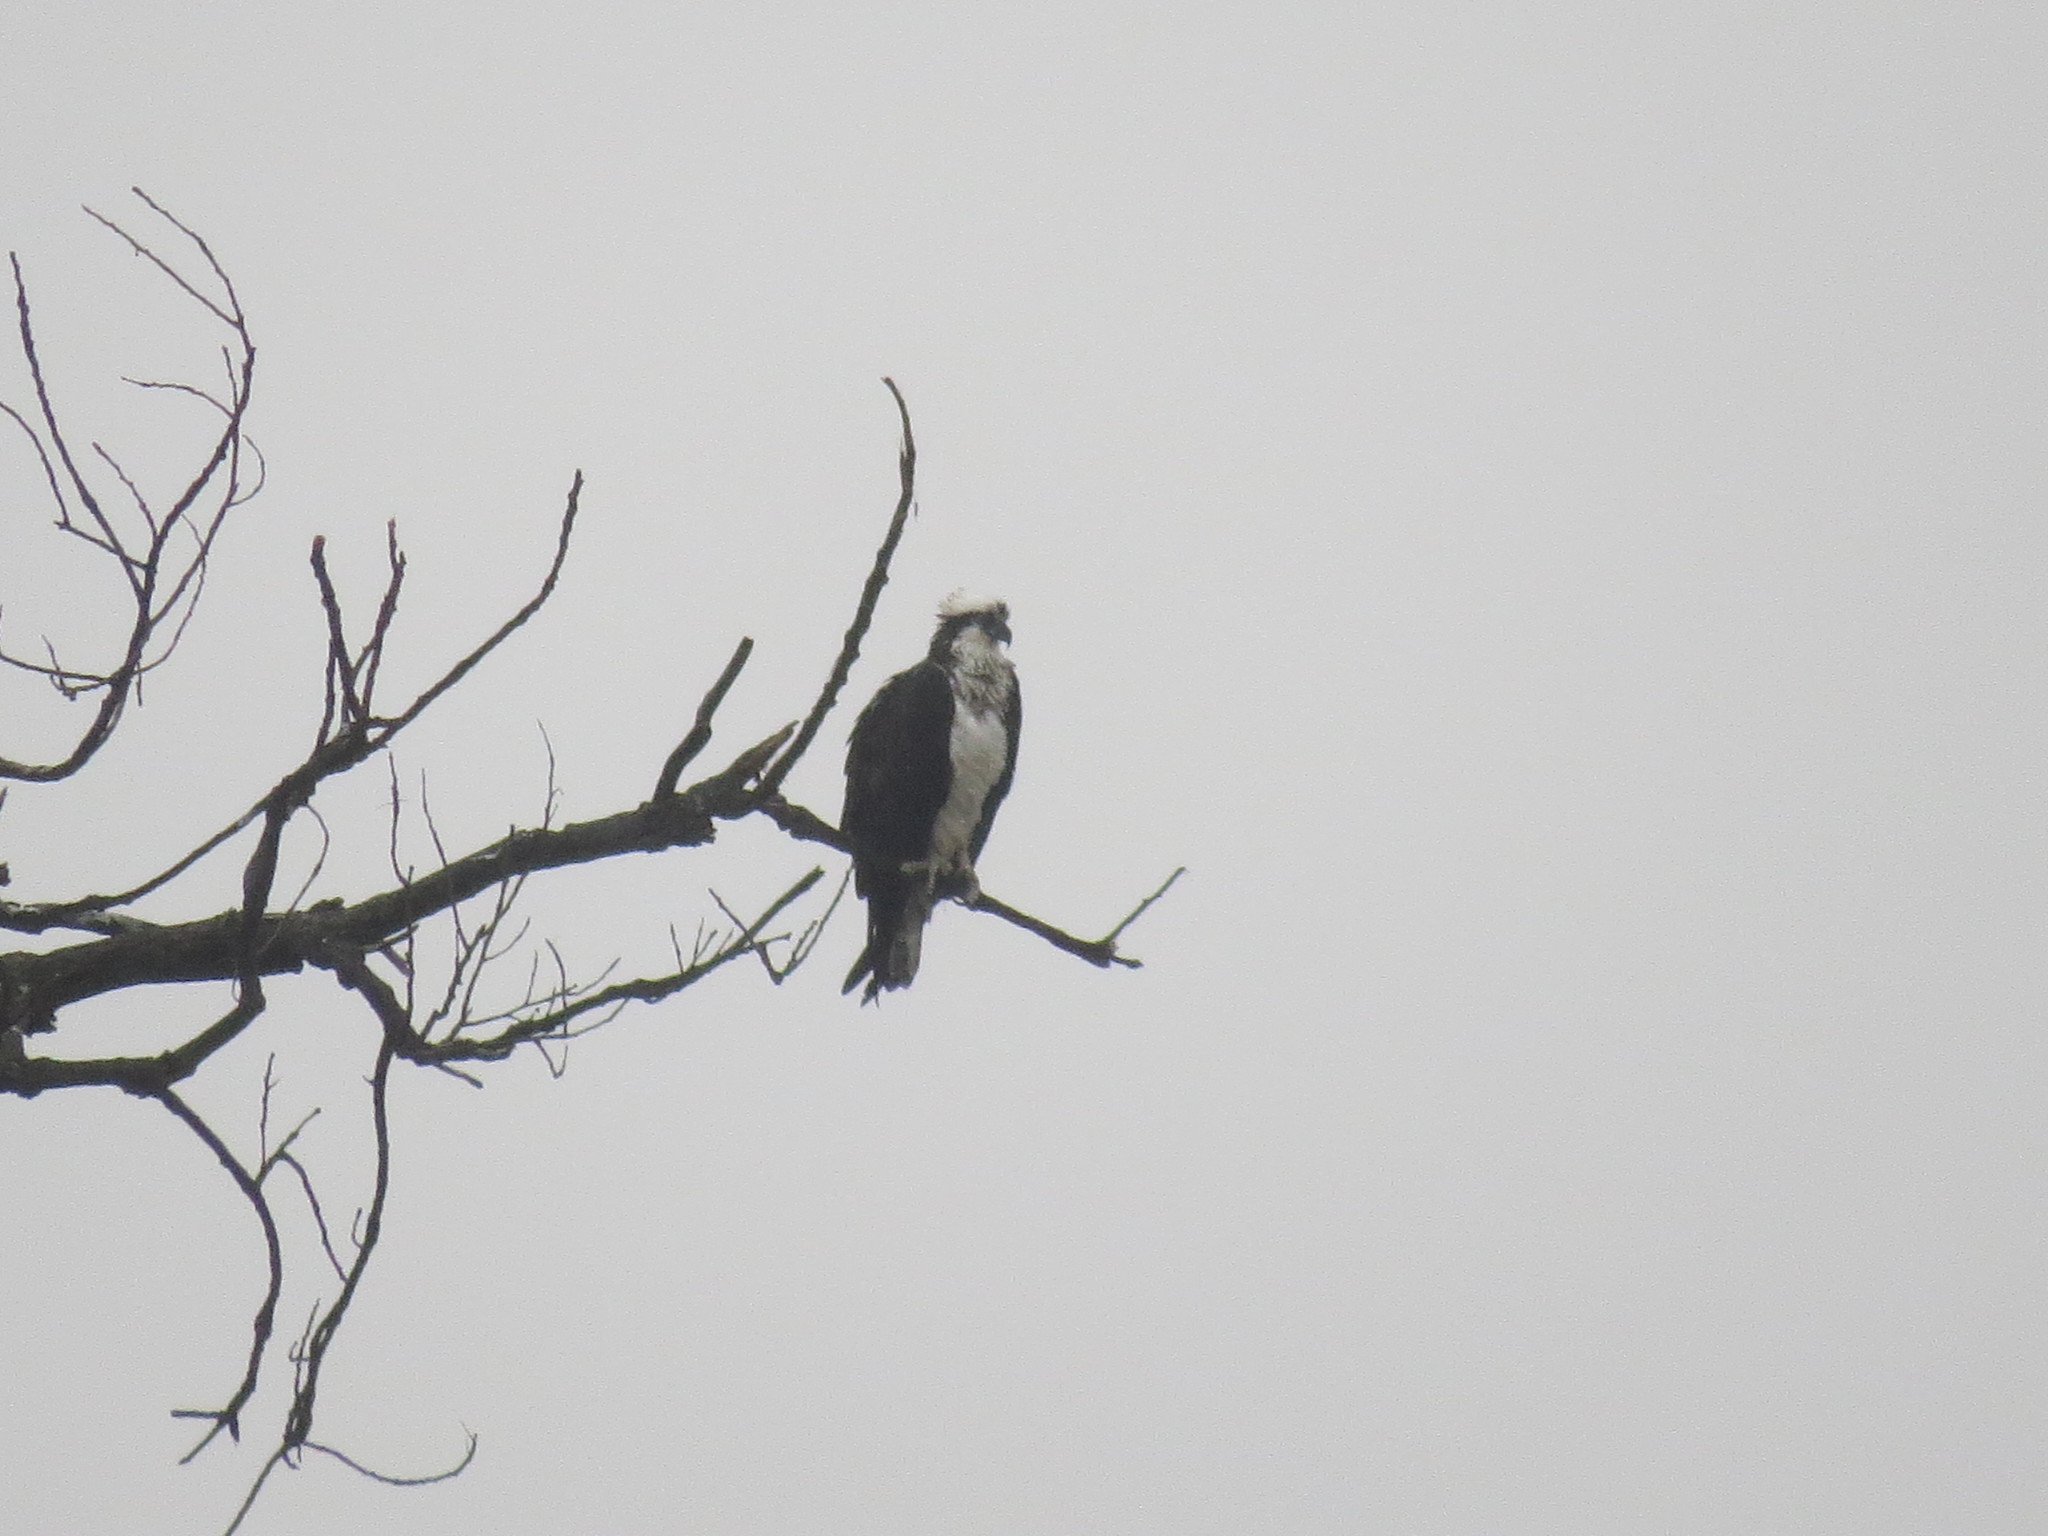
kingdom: Animalia
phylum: Chordata
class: Aves
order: Accipitriformes
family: Pandionidae
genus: Pandion
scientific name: Pandion haliaetus
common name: Osprey
